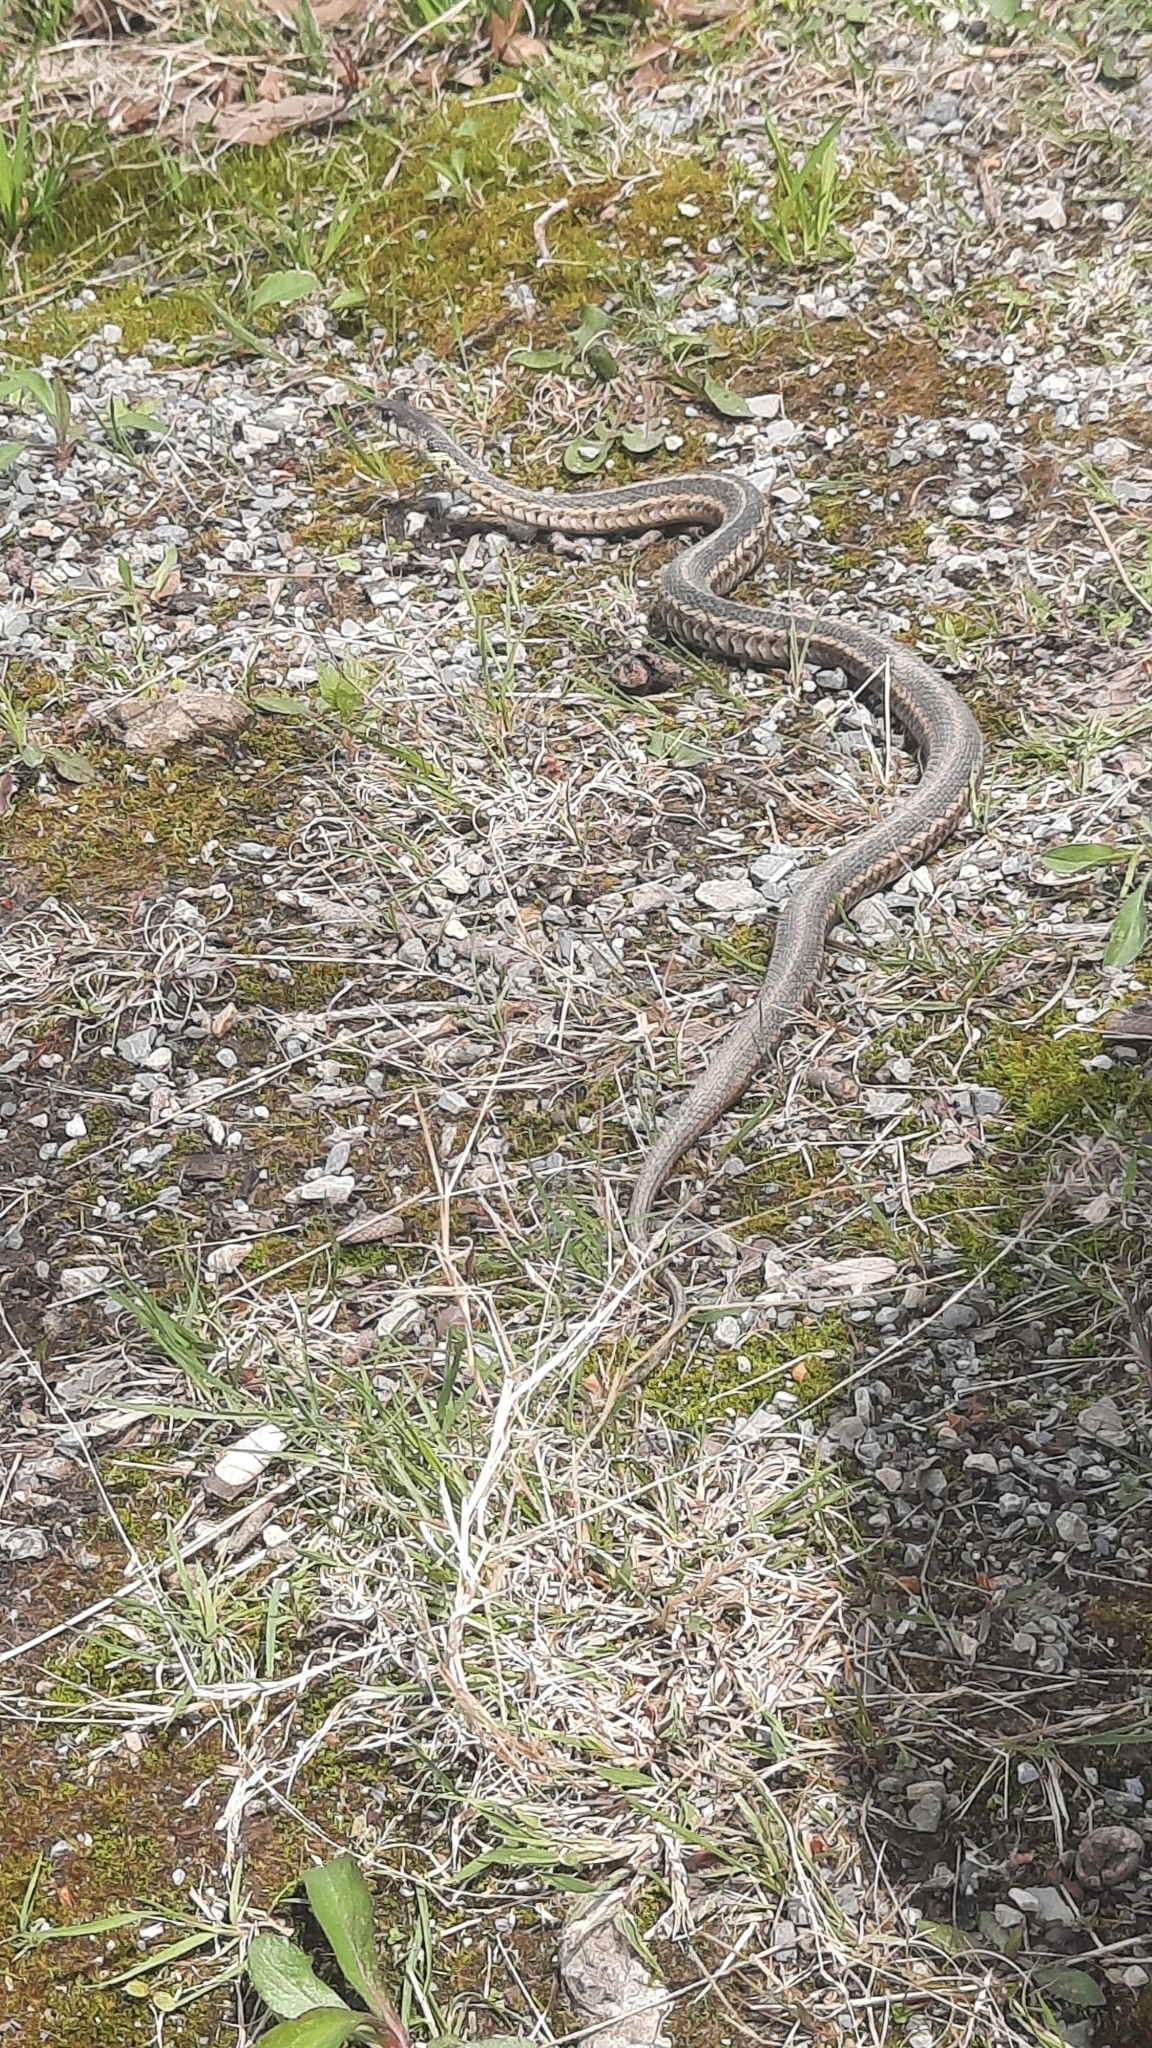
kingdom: Animalia
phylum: Chordata
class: Squamata
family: Colubridae
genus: Thamnophis
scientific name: Thamnophis sirtalis
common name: Common garter snake
